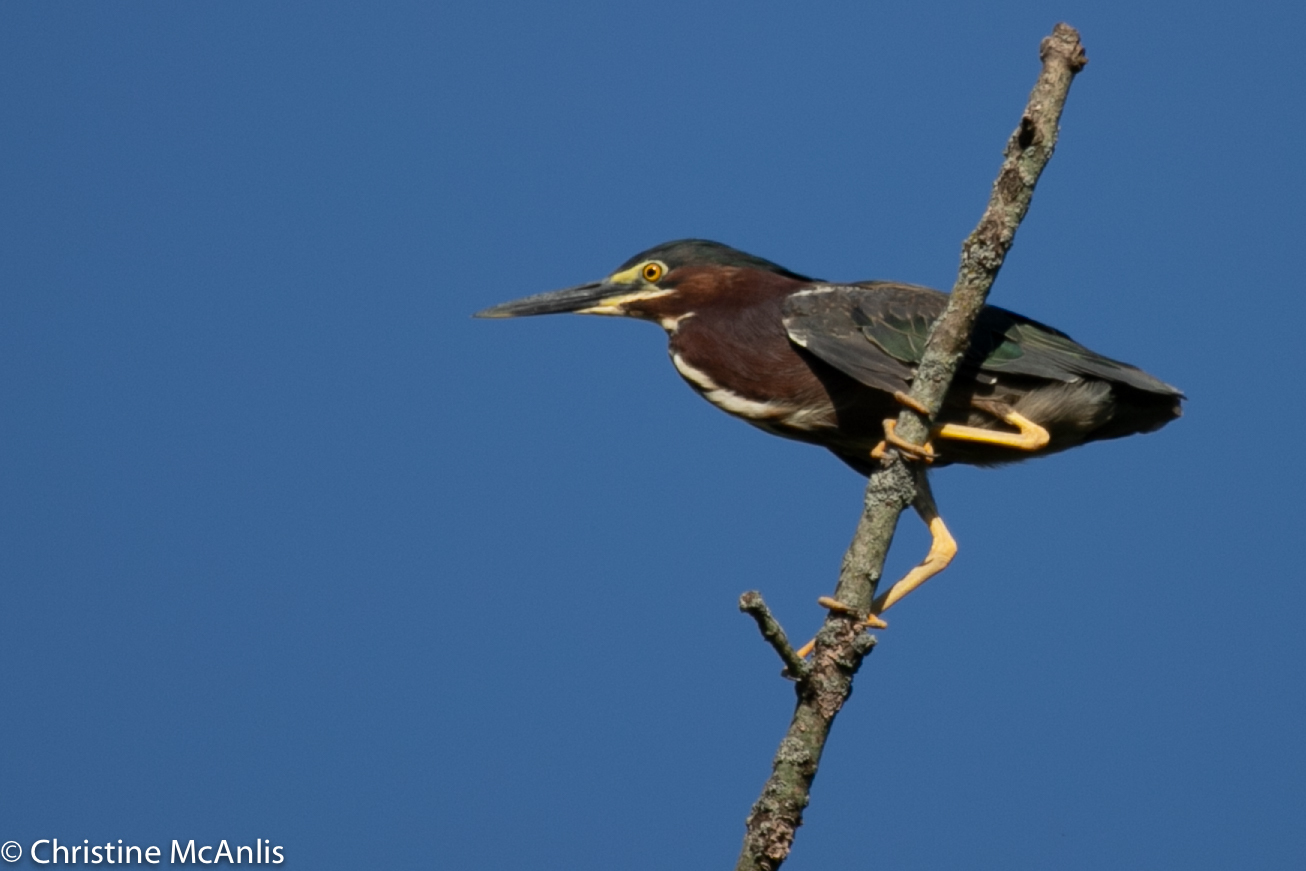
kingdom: Animalia
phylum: Chordata
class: Aves
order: Pelecaniformes
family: Ardeidae
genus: Butorides
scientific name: Butorides virescens
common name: Green heron
